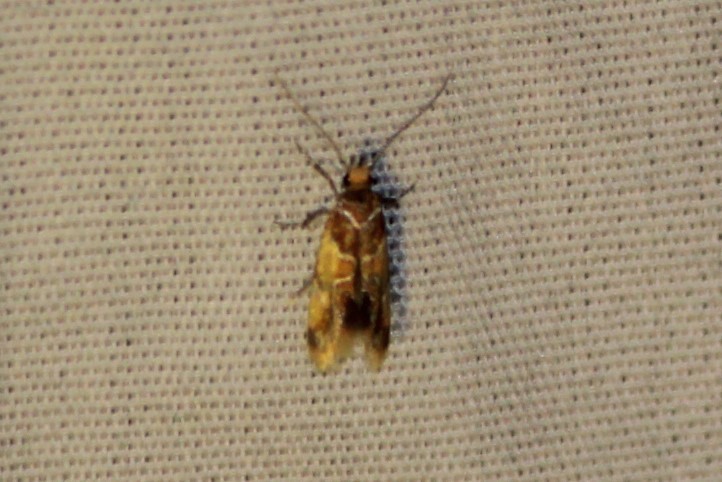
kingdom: Animalia
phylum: Arthropoda
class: Insecta
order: Lepidoptera
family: Oecophoridae
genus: Callima
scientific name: Callima argenticinctella
